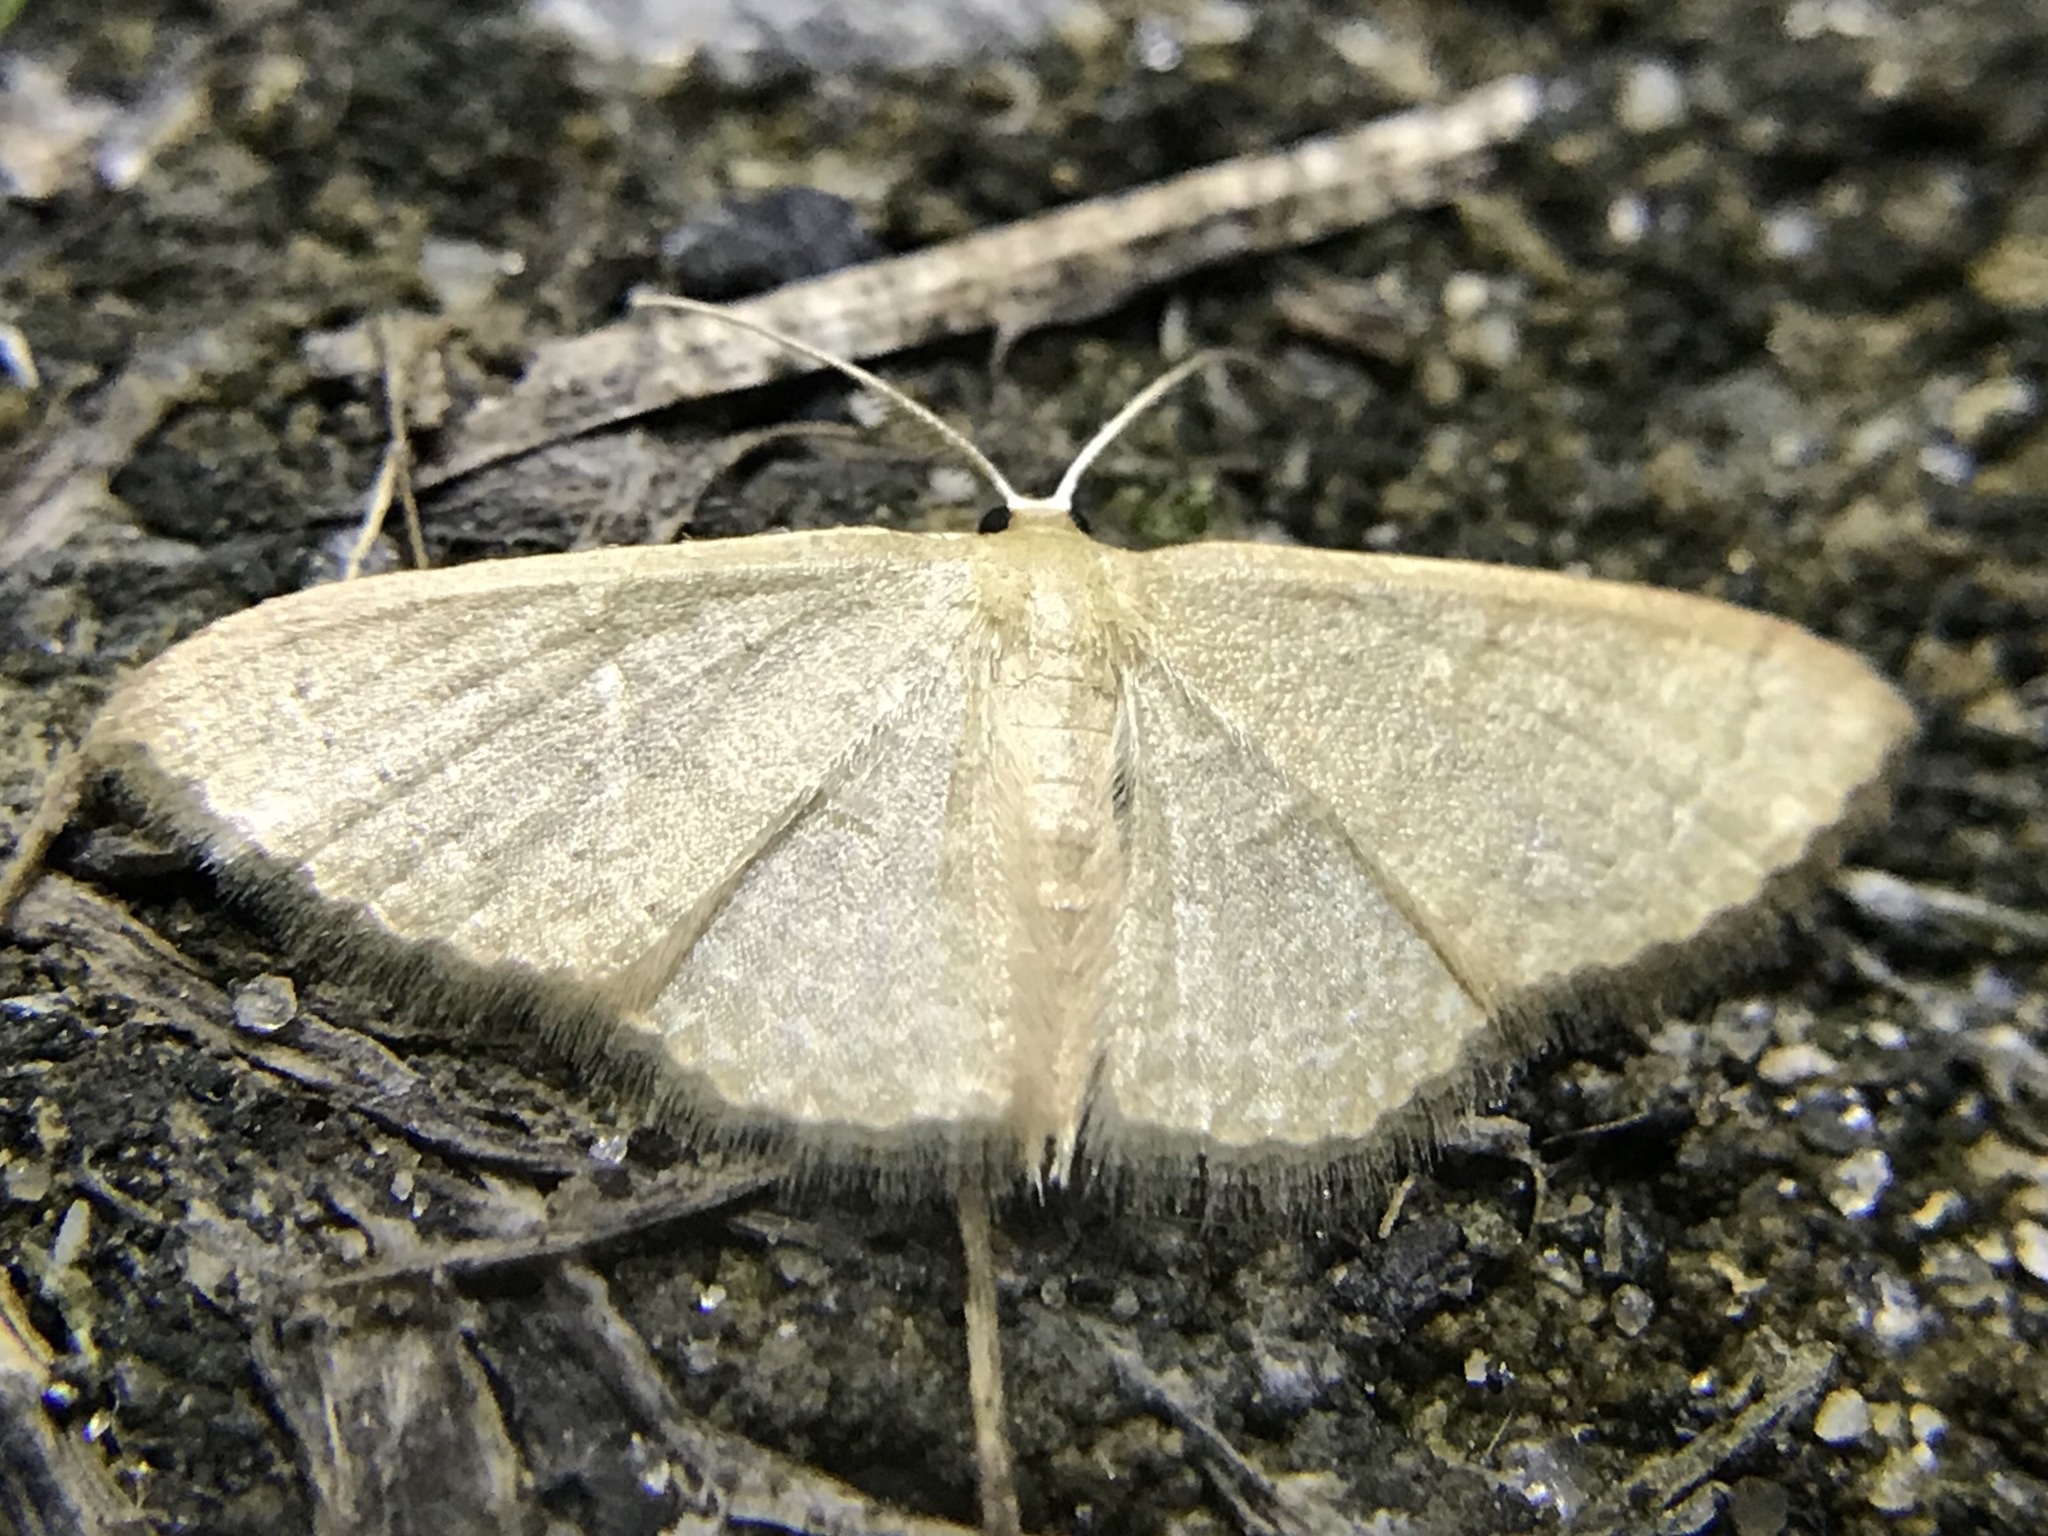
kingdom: Animalia
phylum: Arthropoda
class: Insecta
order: Lepidoptera
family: Geometridae
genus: Pleuroprucha
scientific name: Pleuroprucha insulsaria
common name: Common tan wave
